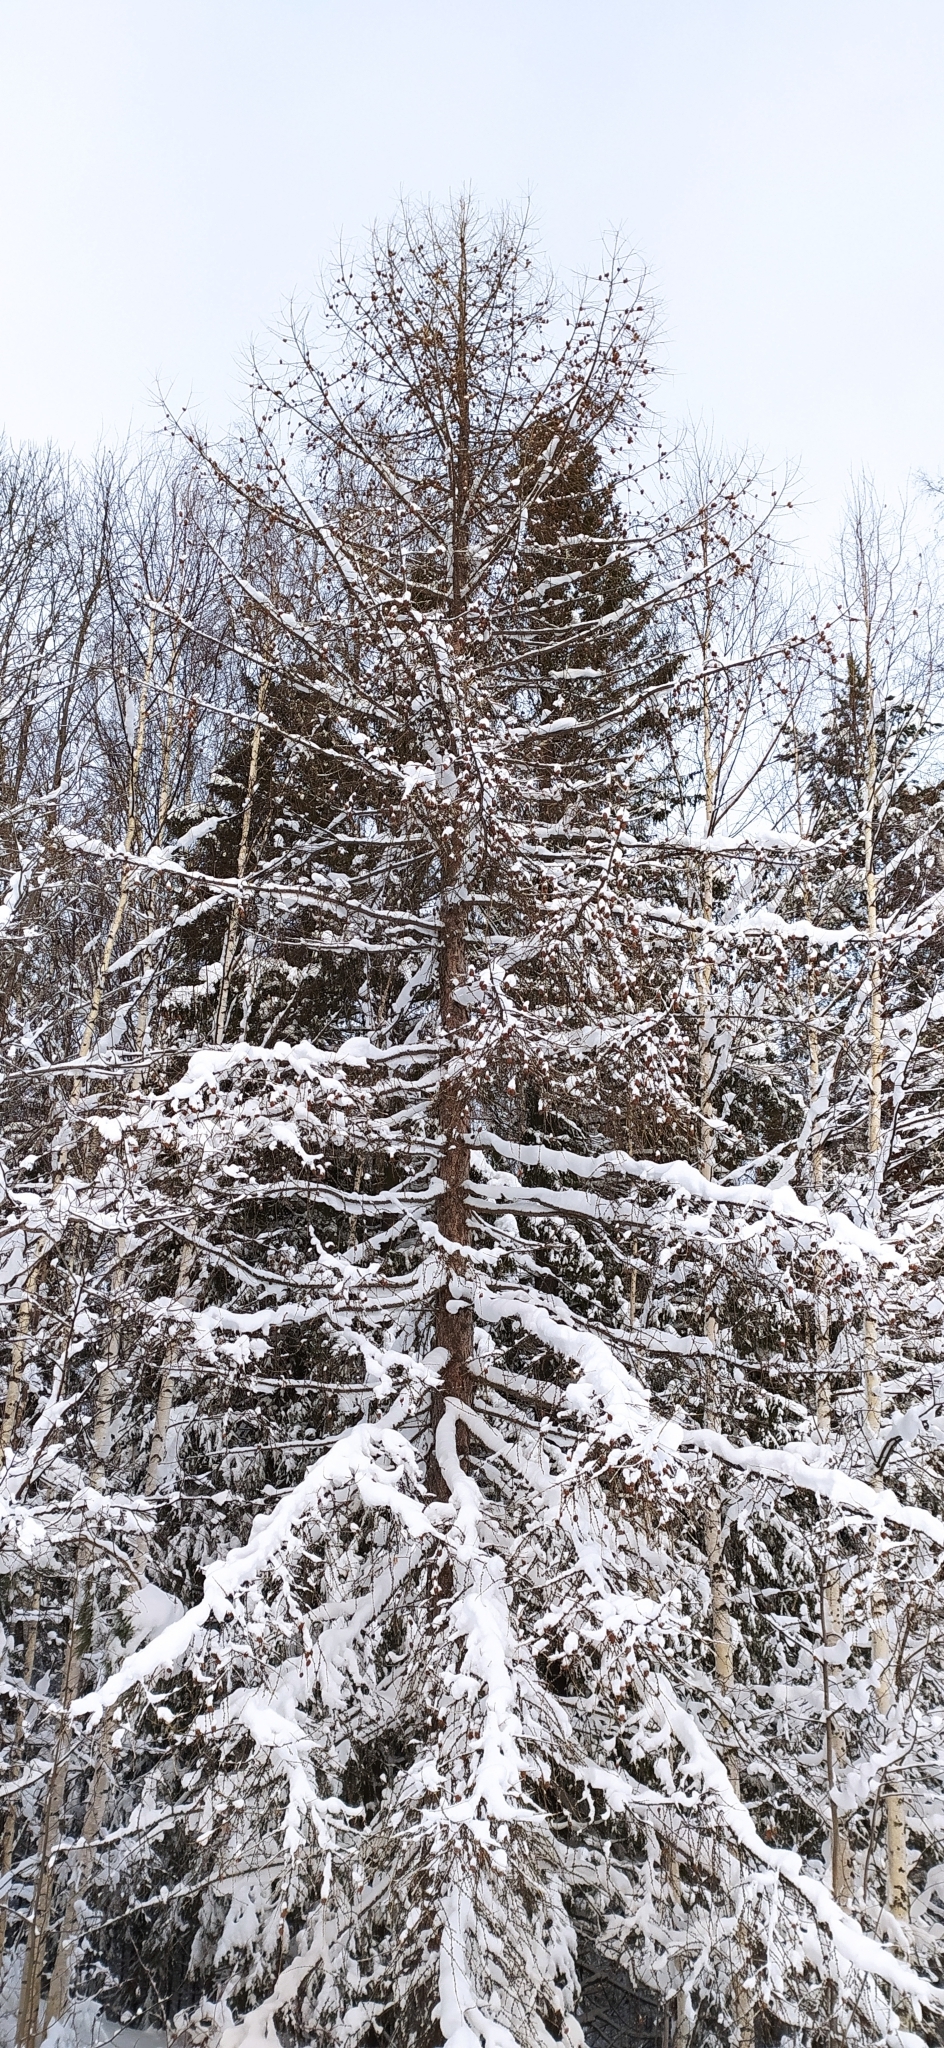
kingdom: Plantae
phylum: Tracheophyta
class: Pinopsida
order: Pinales
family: Pinaceae
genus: Larix
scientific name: Larix sibirica
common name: Siberian larch
